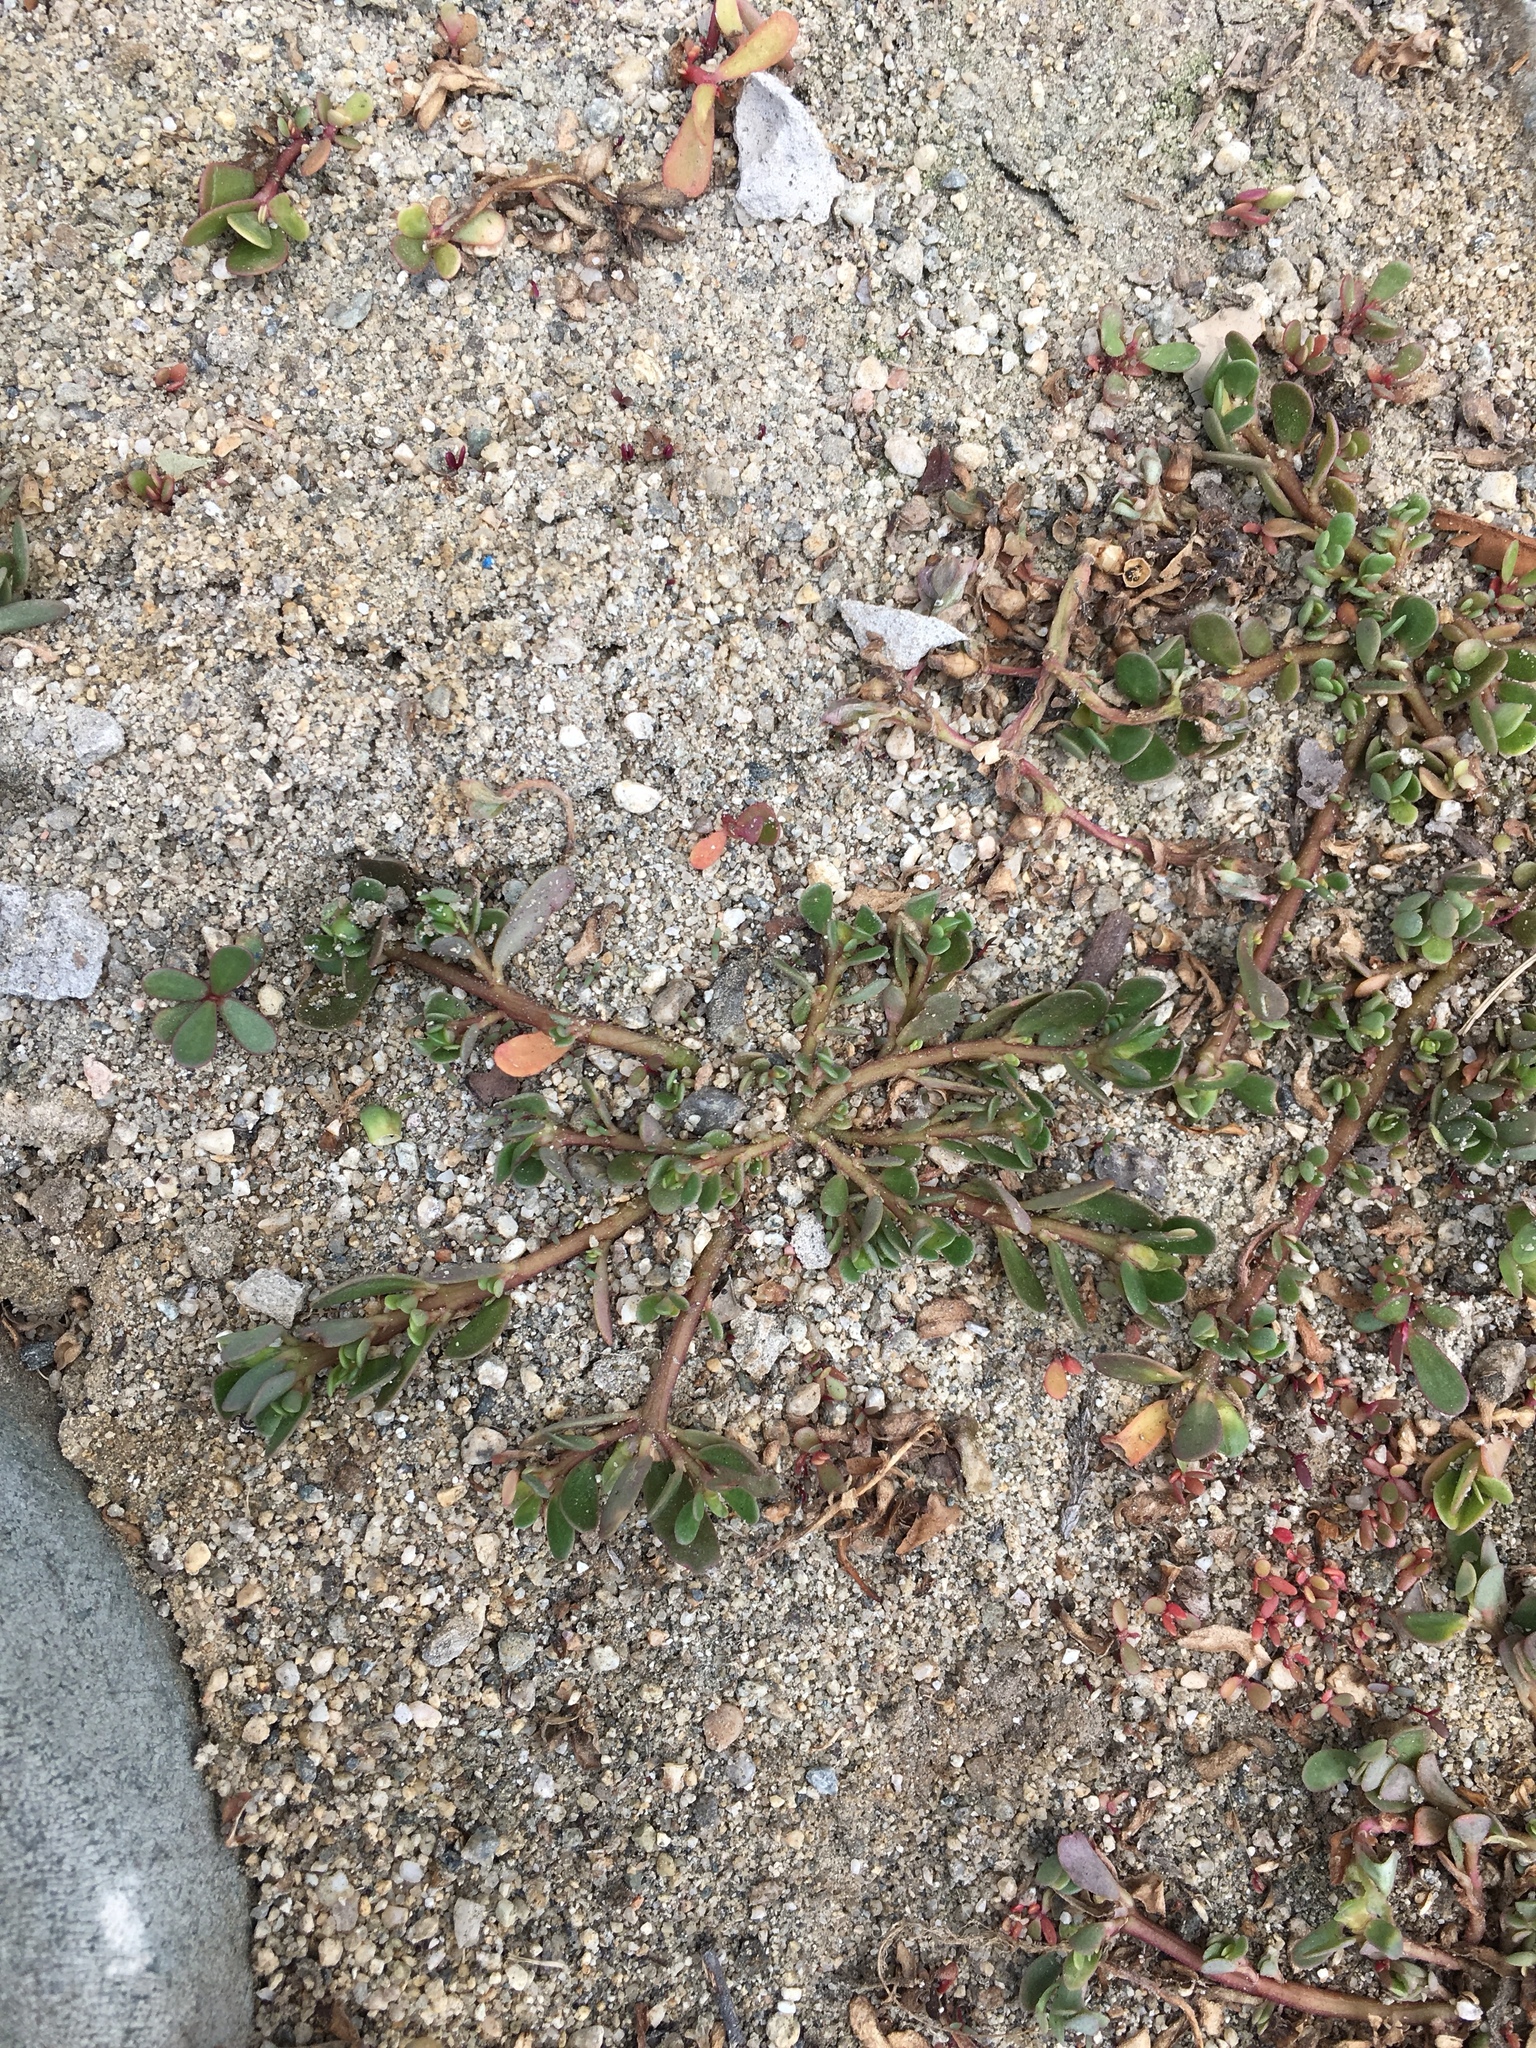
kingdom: Plantae
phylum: Tracheophyta
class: Magnoliopsida
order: Caryophyllales
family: Portulacaceae
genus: Portulaca
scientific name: Portulaca oleracea
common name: Common purslane
